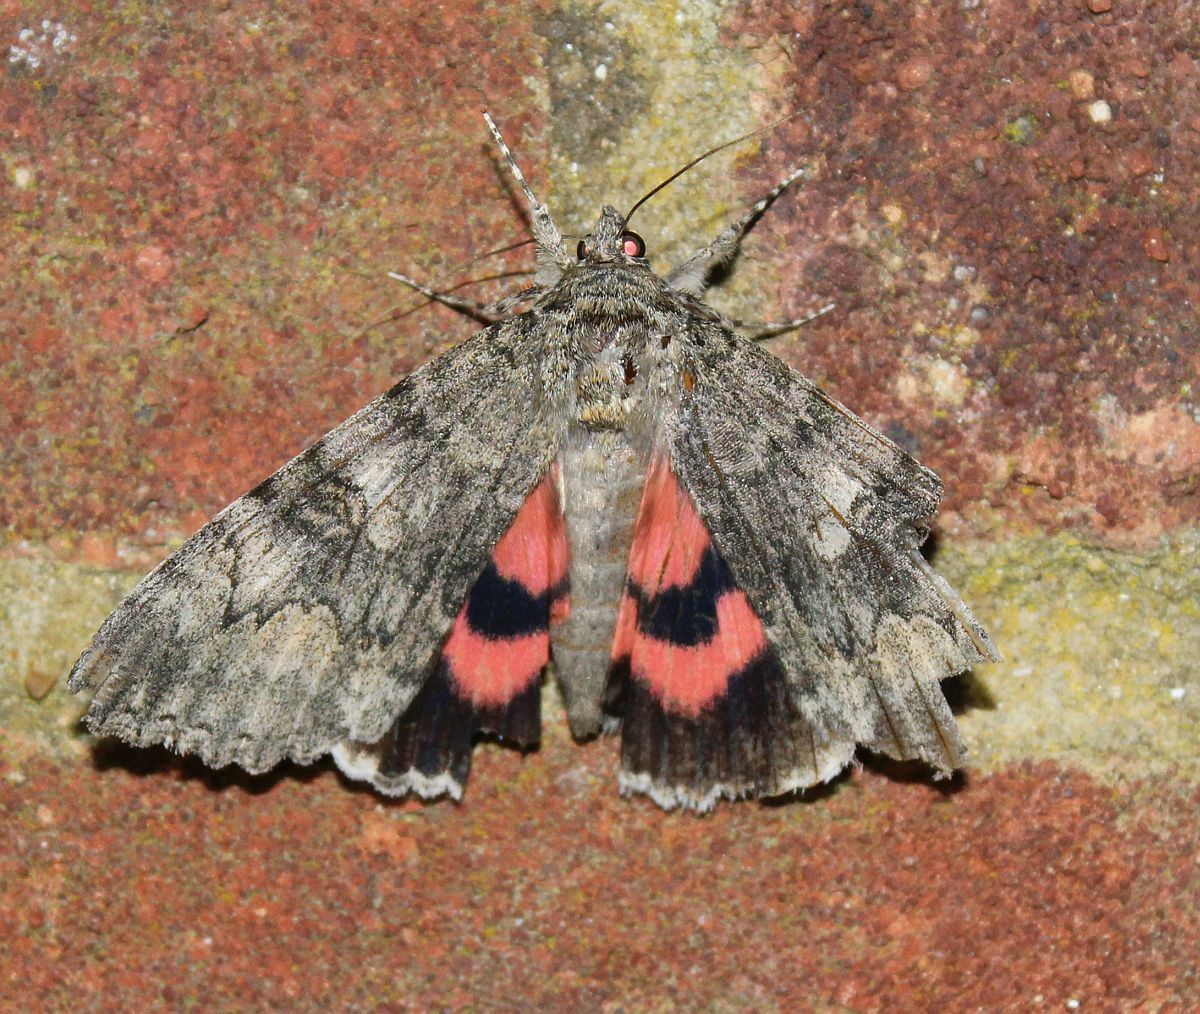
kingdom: Animalia
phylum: Arthropoda
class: Insecta
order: Lepidoptera
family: Erebidae
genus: Catocala
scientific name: Catocala nupta
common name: Red underwing
